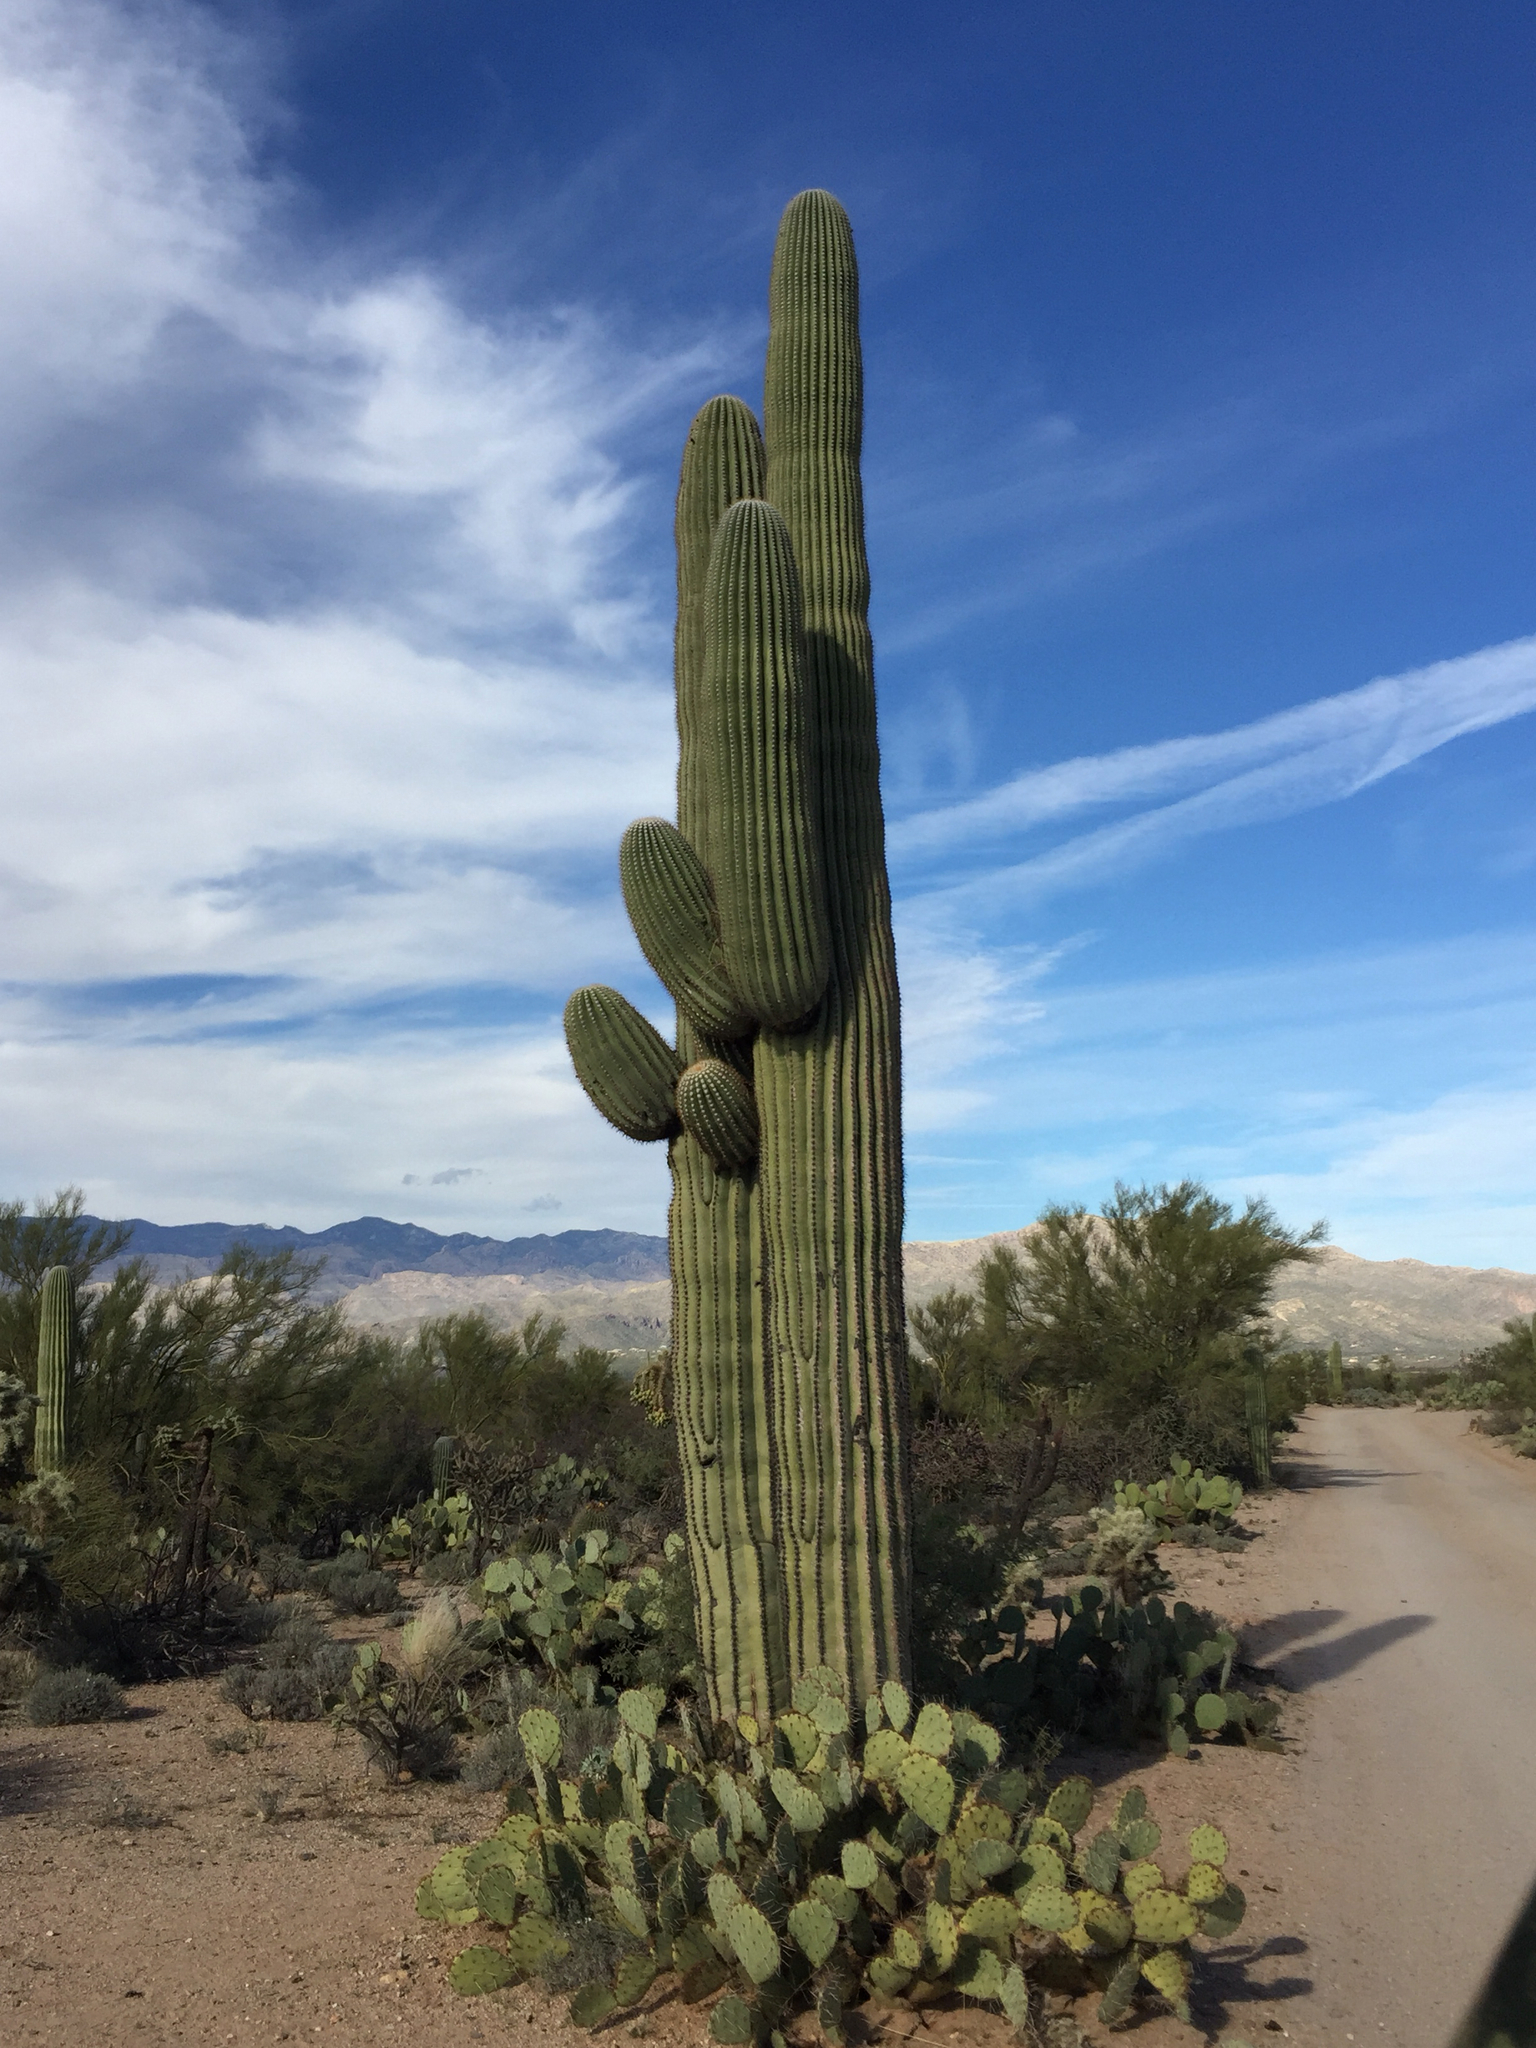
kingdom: Plantae
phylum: Tracheophyta
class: Magnoliopsida
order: Caryophyllales
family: Cactaceae
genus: Carnegiea
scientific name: Carnegiea gigantea
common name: Saguaro
